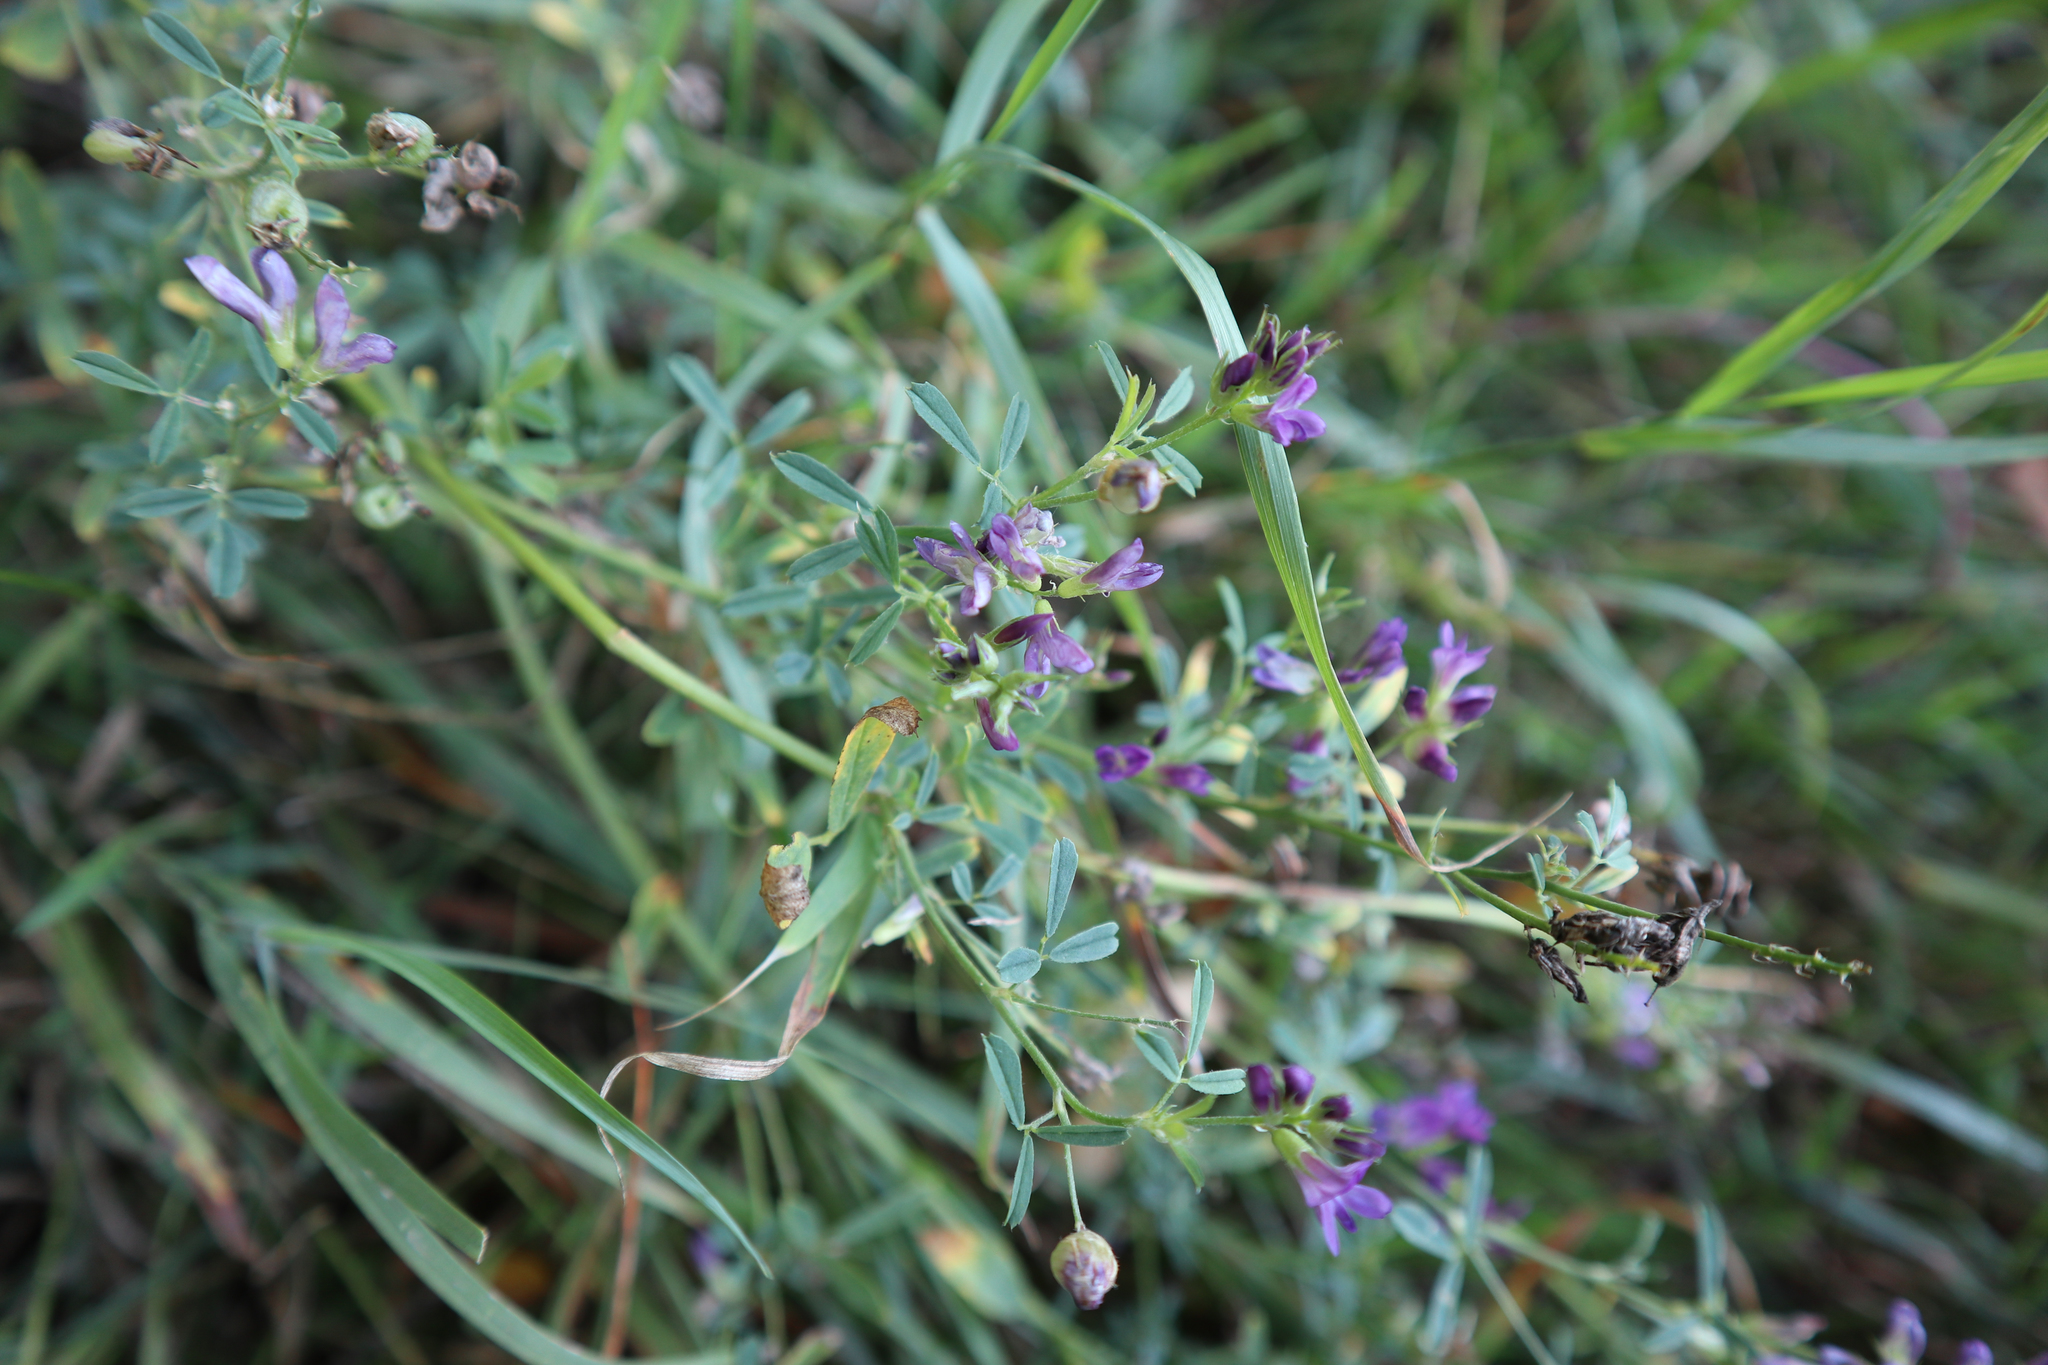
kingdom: Plantae
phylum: Tracheophyta
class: Magnoliopsida
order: Fabales
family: Fabaceae
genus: Medicago
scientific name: Medicago sativa
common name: Alfalfa
